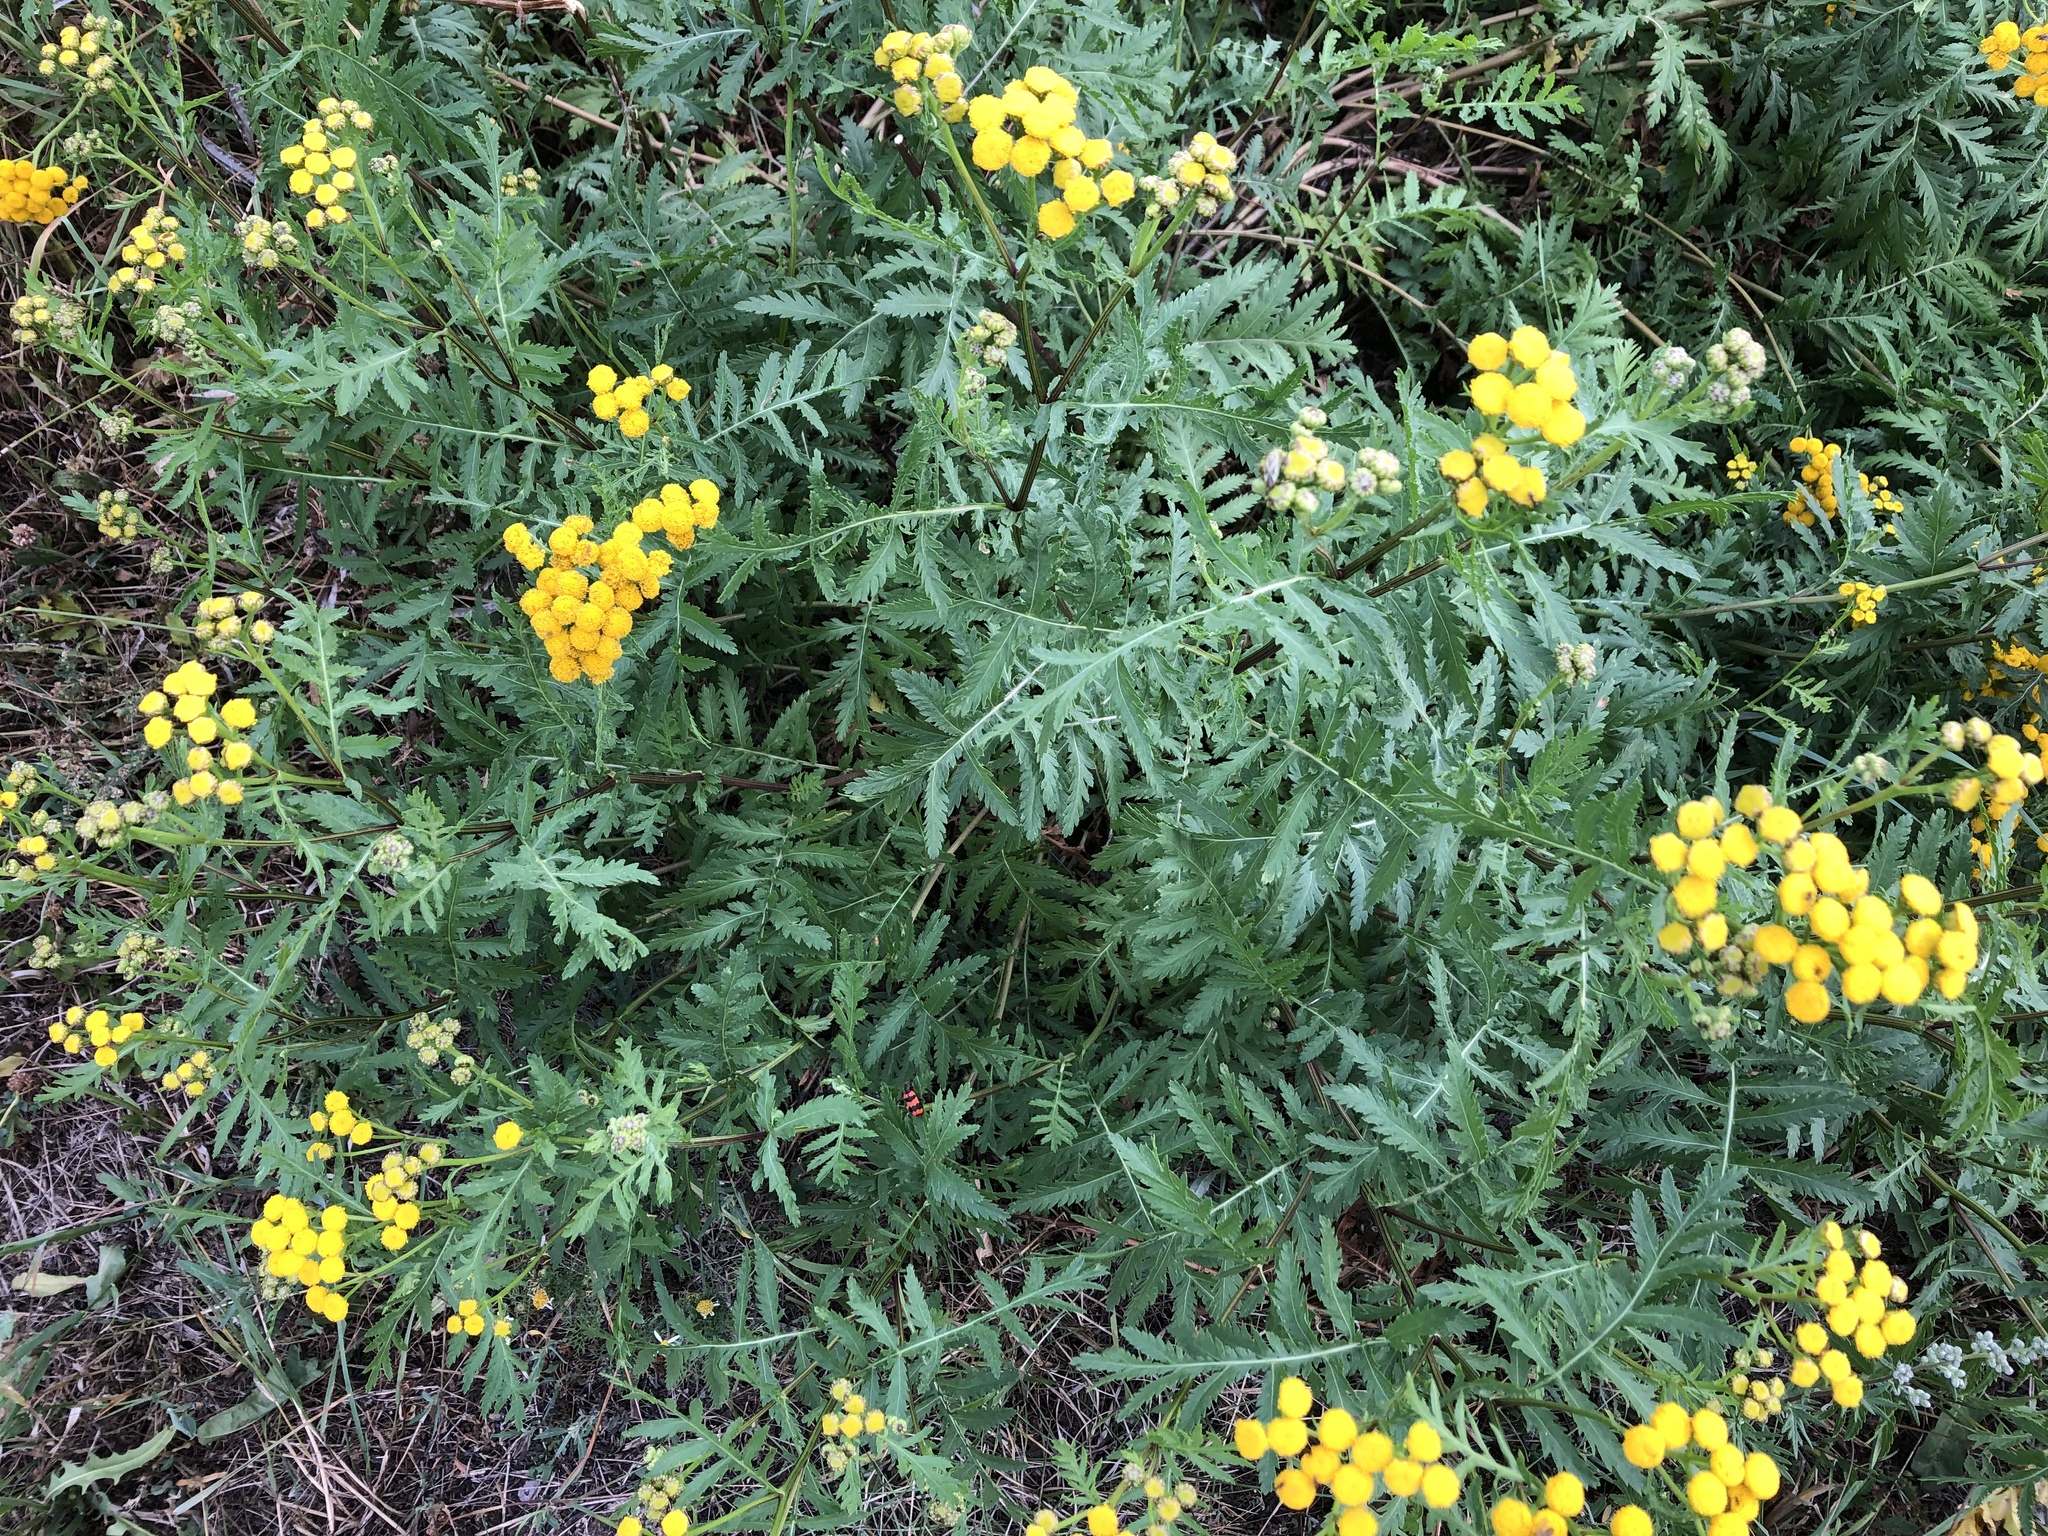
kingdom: Plantae
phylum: Tracheophyta
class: Magnoliopsida
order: Asterales
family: Asteraceae
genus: Tanacetum
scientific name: Tanacetum vulgare
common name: Common tansy
